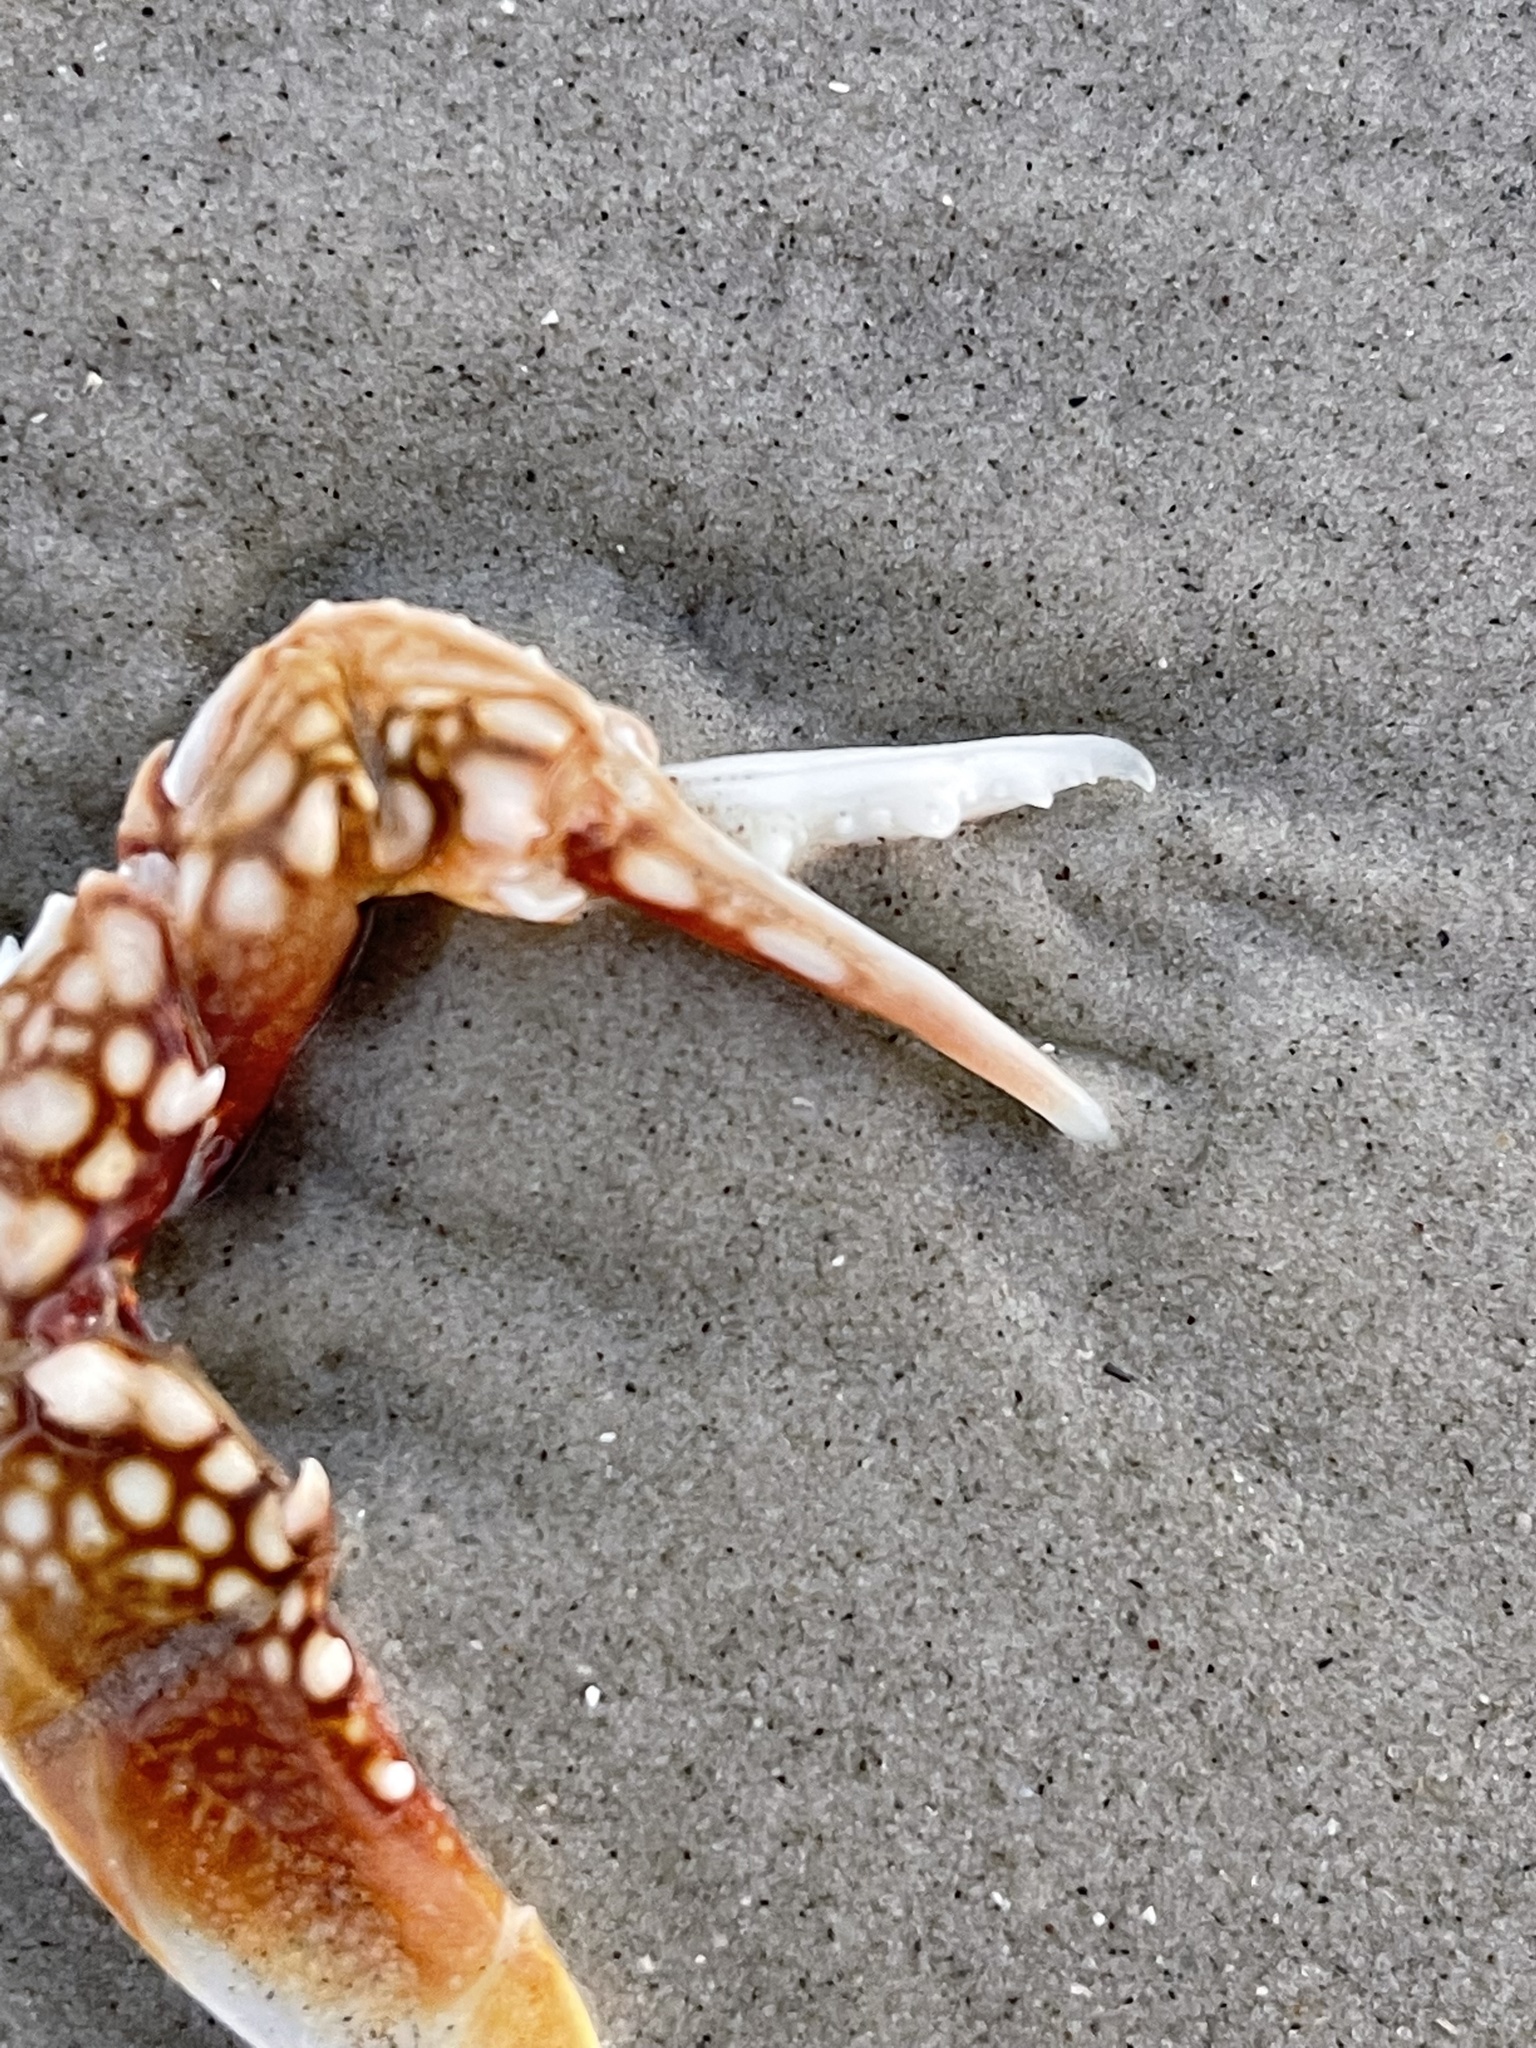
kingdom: Animalia
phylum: Arthropoda
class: Malacostraca
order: Decapoda
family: Portunidae
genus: Arenaeus
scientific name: Arenaeus cribrarius
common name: Speckled crab
